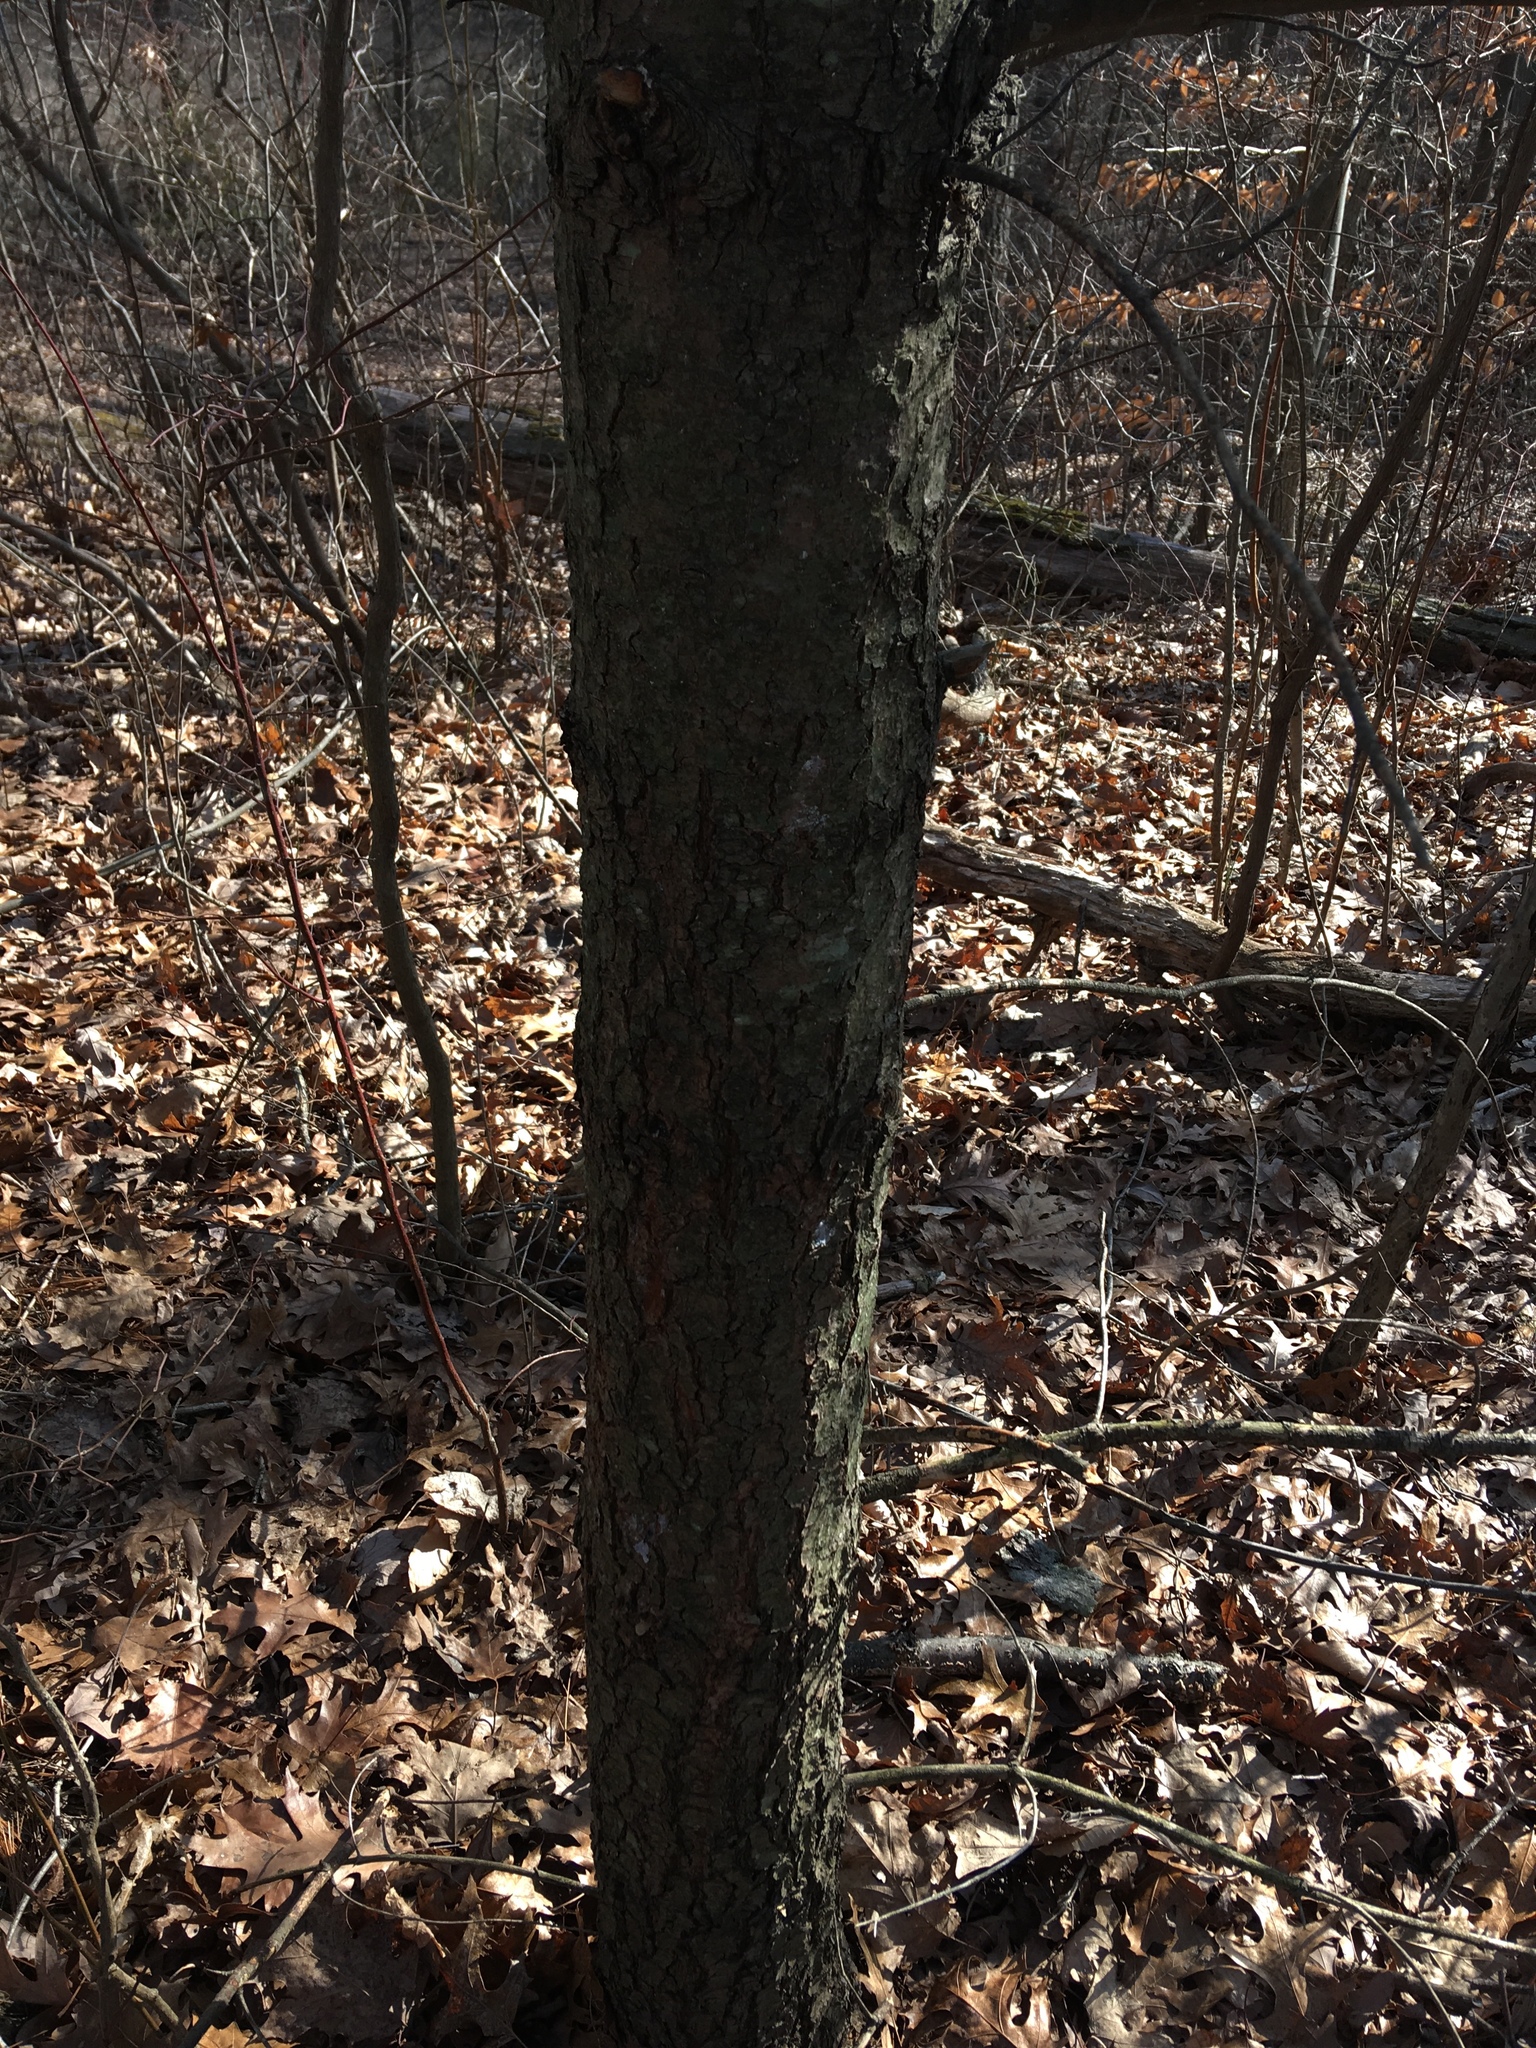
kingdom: Plantae
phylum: Tracheophyta
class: Pinopsida
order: Pinales
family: Pinaceae
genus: Pinus
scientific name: Pinus strobus
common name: Weymouth pine
